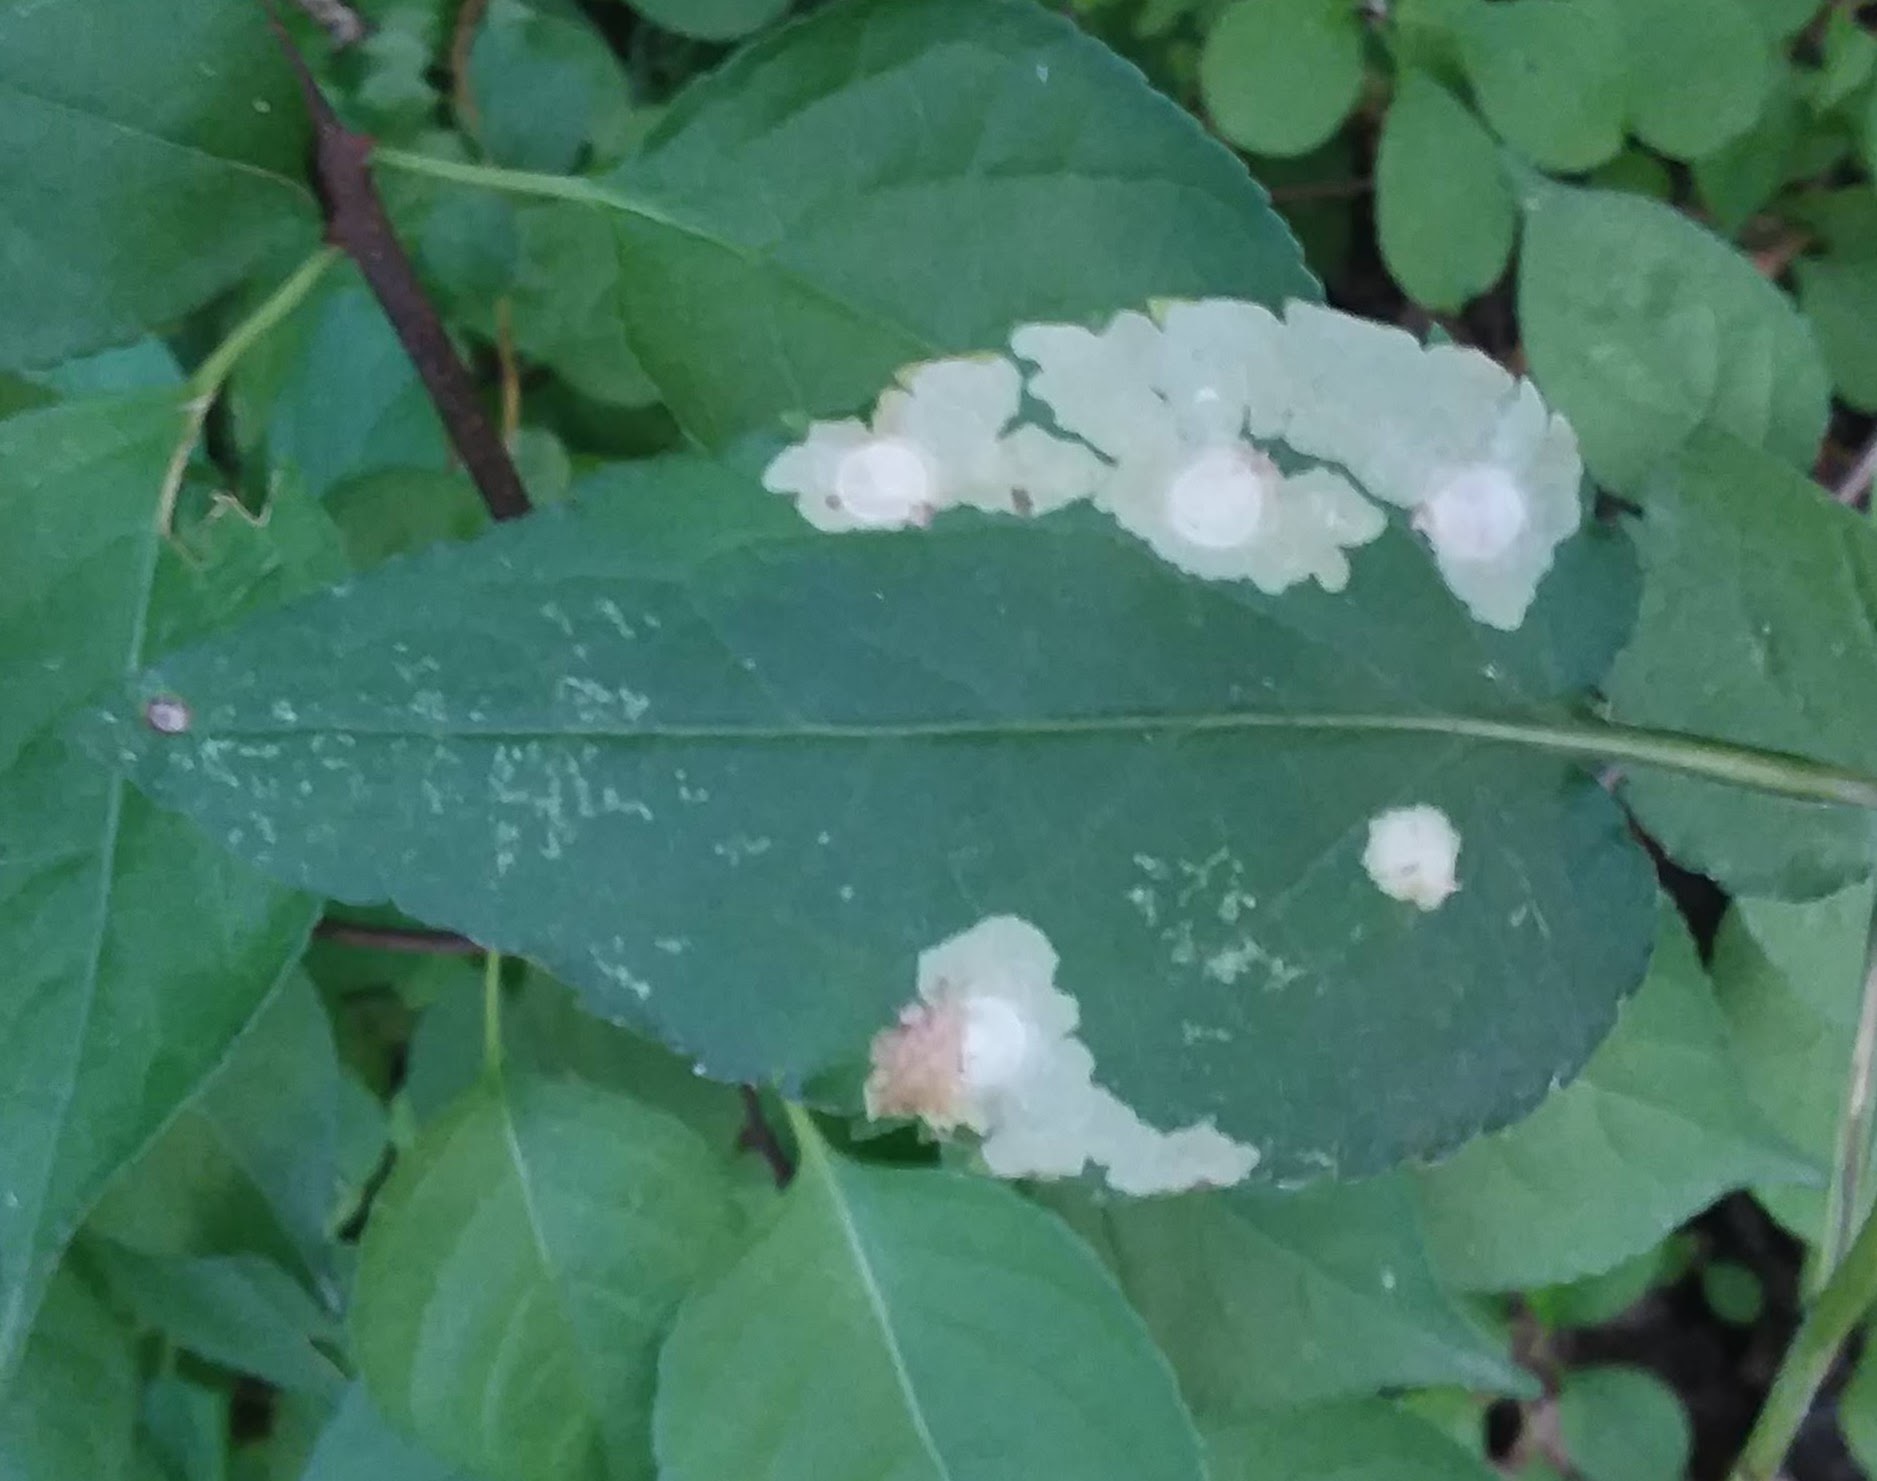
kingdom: Animalia
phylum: Arthropoda
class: Insecta
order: Lepidoptera
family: Tischeriidae
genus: Astrotischeria
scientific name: Astrotischeria astericola
